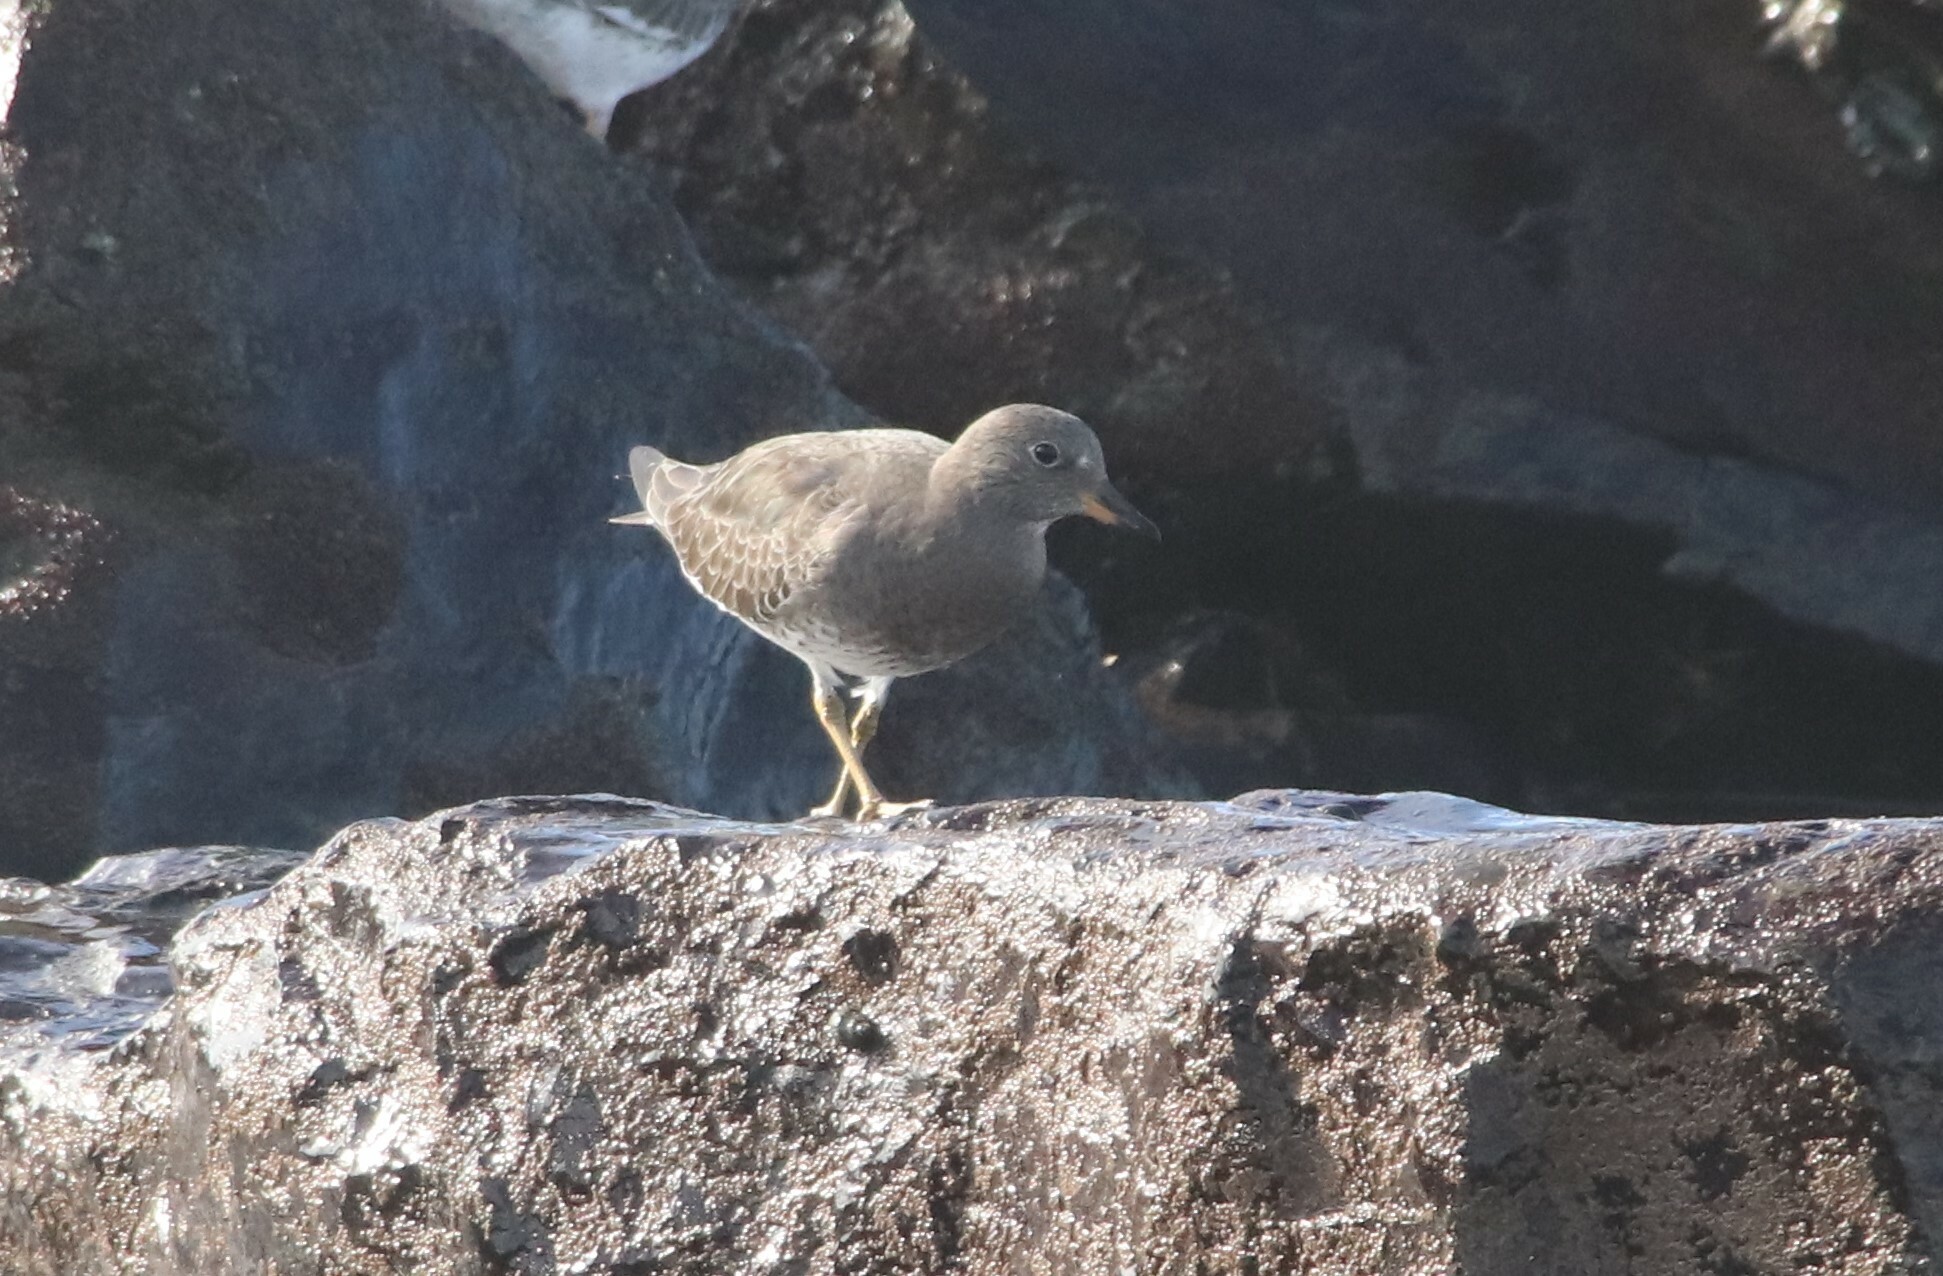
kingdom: Animalia
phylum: Chordata
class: Aves
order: Charadriiformes
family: Scolopacidae
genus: Calidris
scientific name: Calidris virgata
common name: Surfbird
